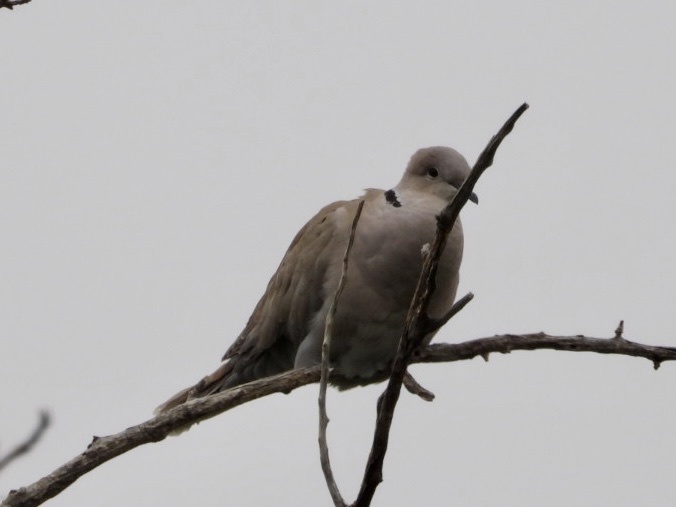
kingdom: Animalia
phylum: Chordata
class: Aves
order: Columbiformes
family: Columbidae
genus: Streptopelia
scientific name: Streptopelia decaocto
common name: Eurasian collared dove
